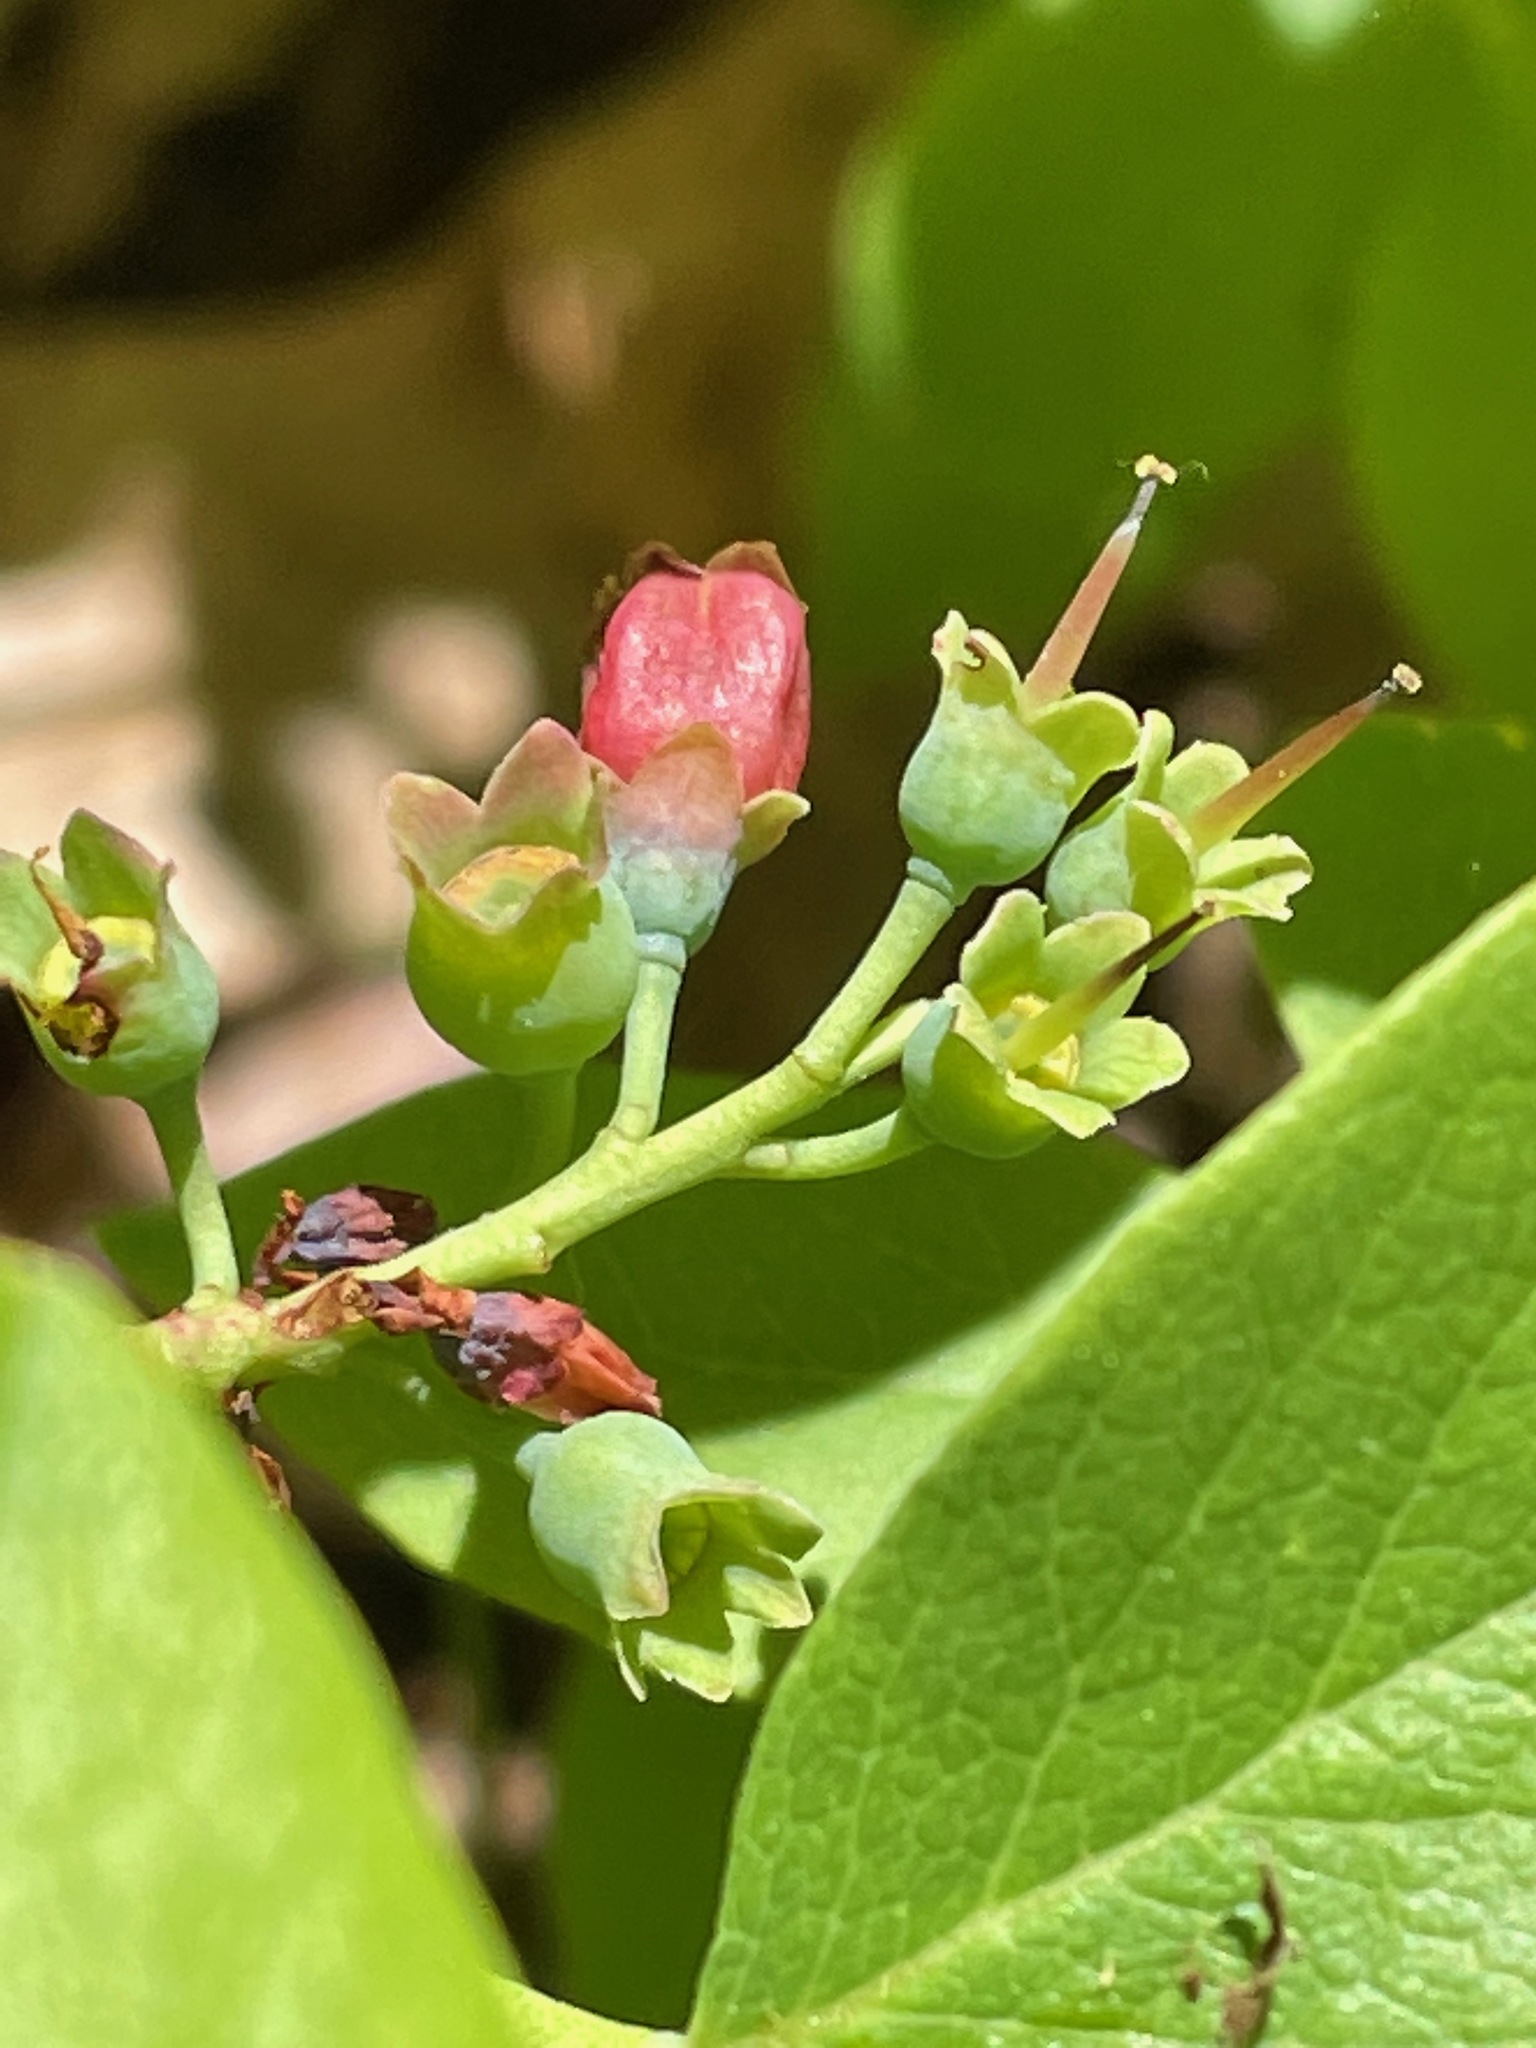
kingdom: Plantae
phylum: Tracheophyta
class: Magnoliopsida
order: Ericales
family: Ericaceae
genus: Vaccinium
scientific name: Vaccinium pallidum
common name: Blue ridge blueberry
